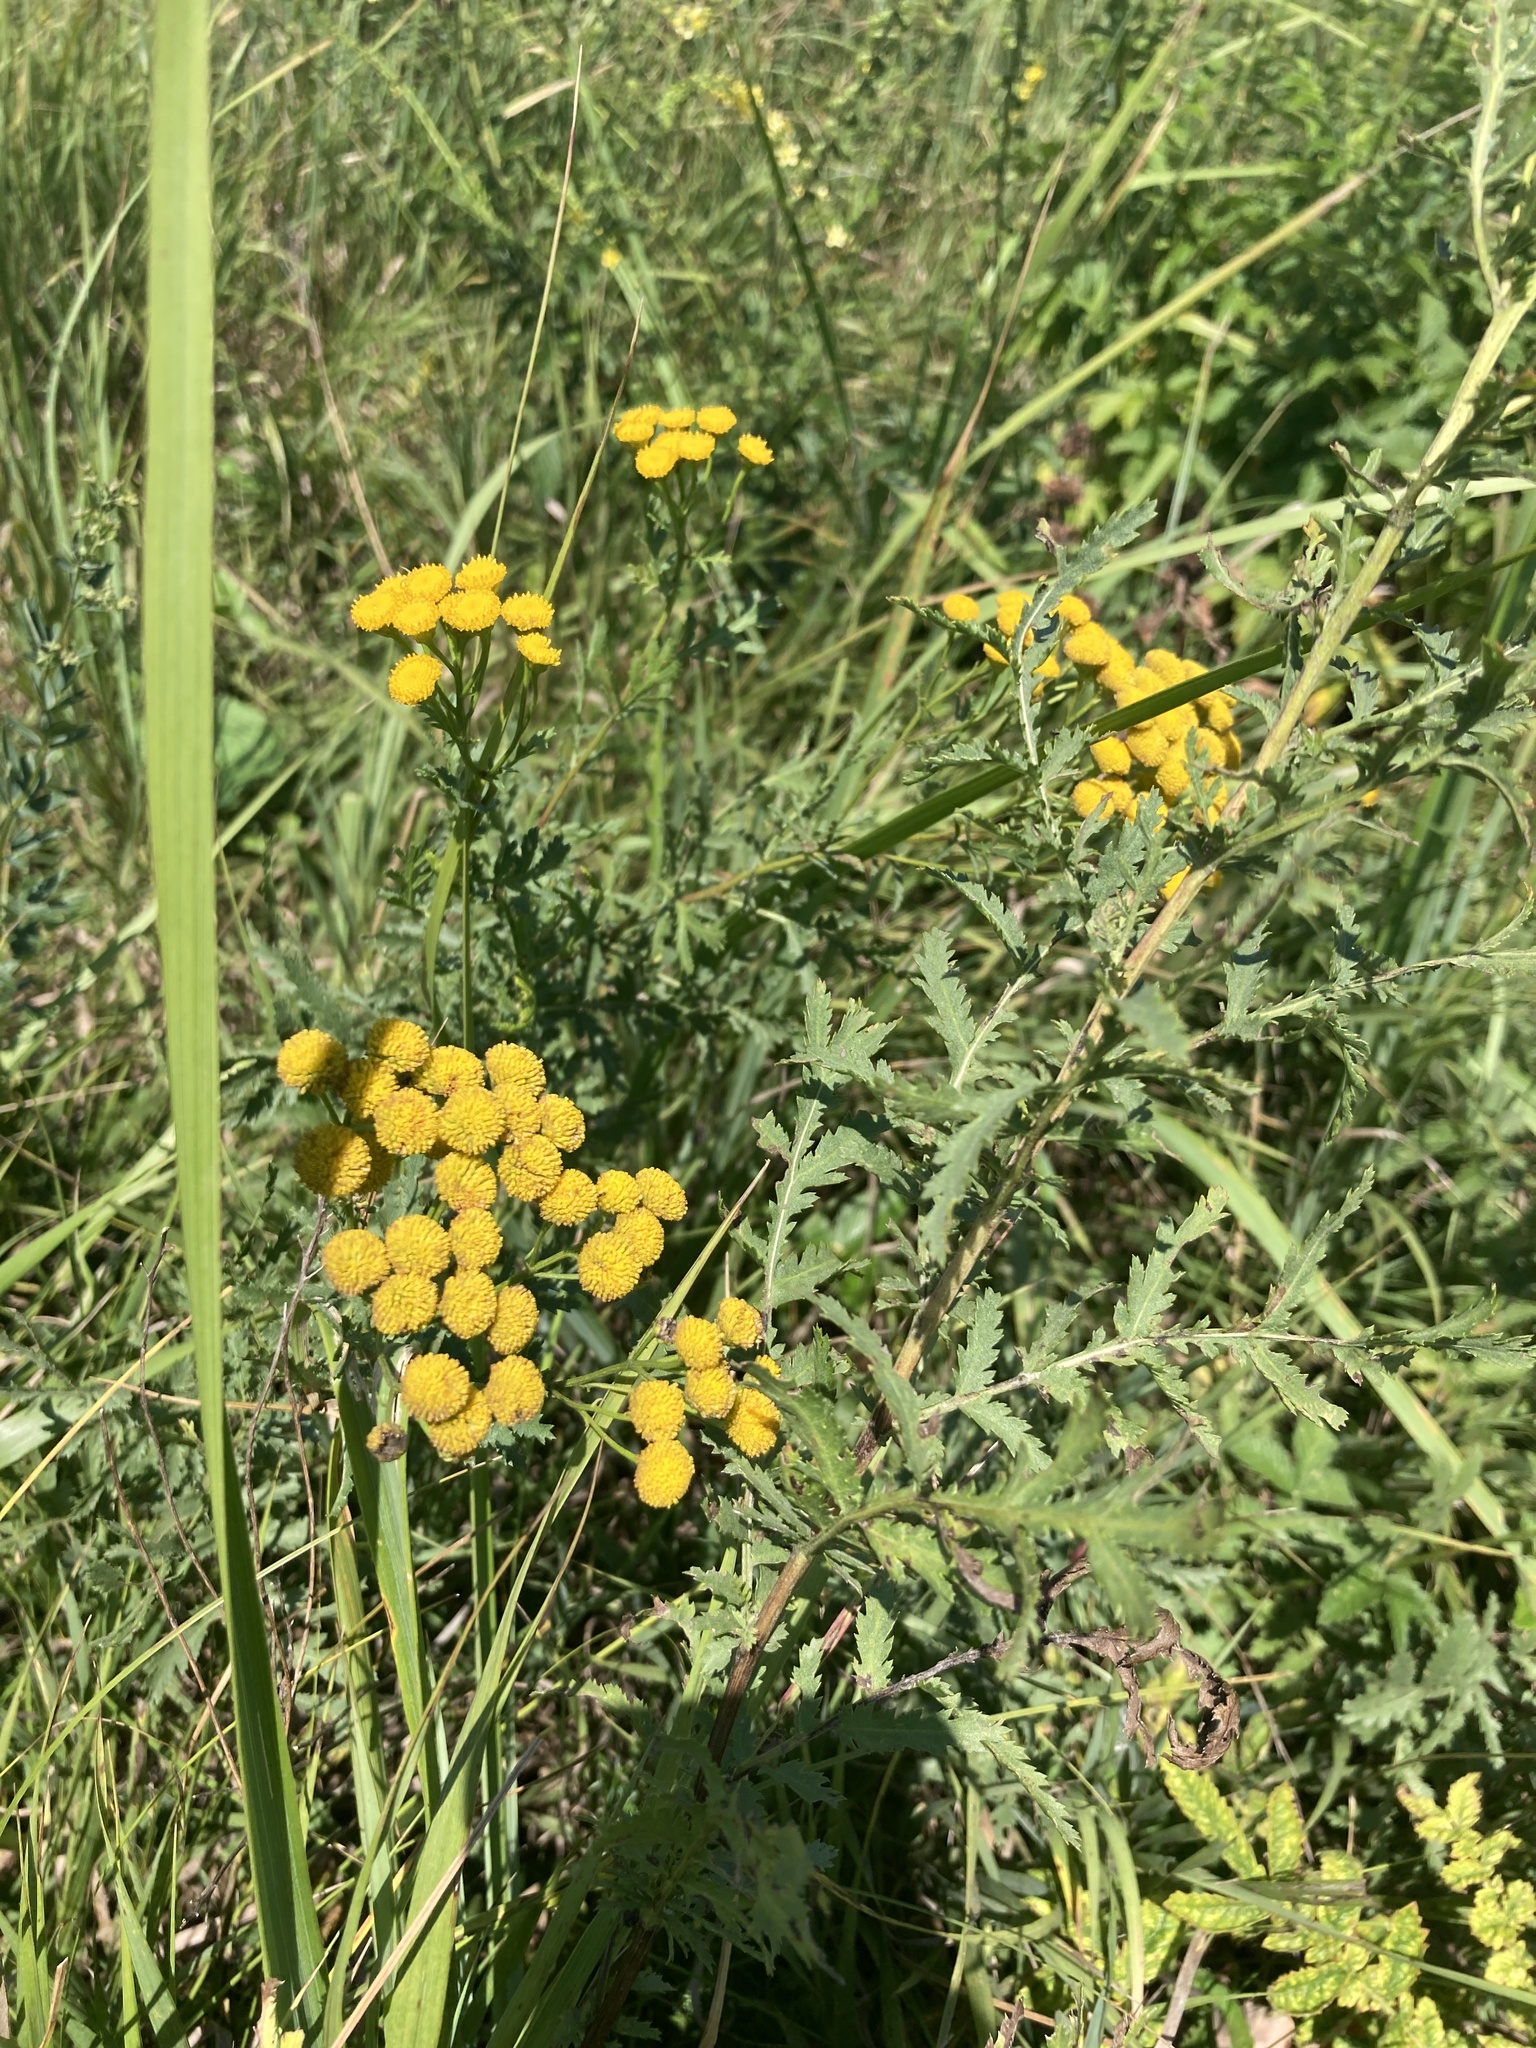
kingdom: Plantae
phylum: Tracheophyta
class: Magnoliopsida
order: Asterales
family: Asteraceae
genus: Tanacetum
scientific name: Tanacetum vulgare
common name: Common tansy
